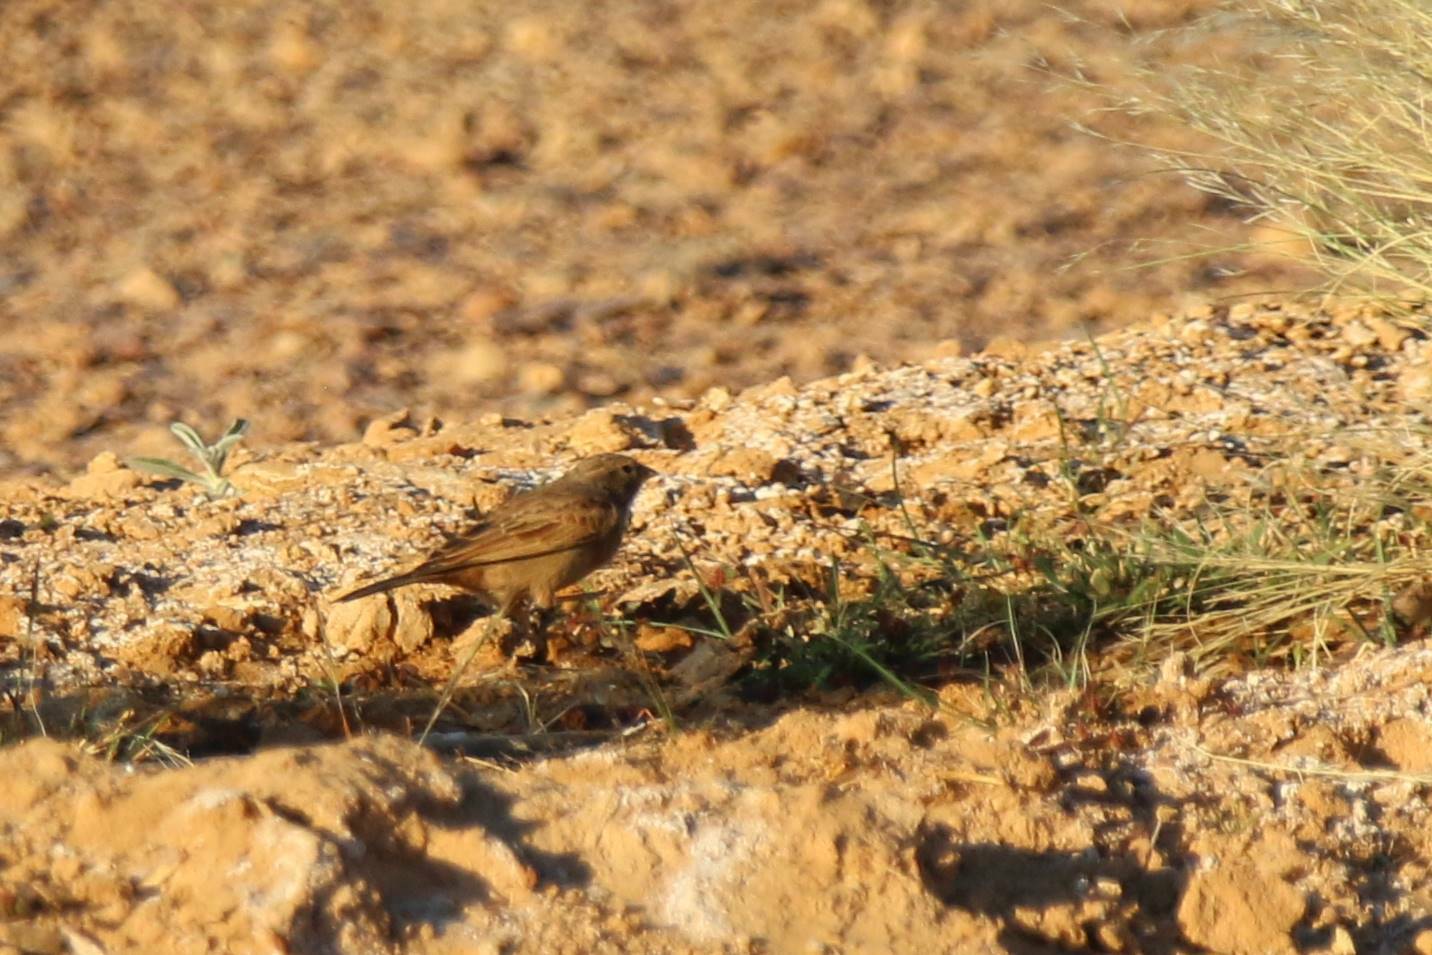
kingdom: Animalia
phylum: Chordata
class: Aves
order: Passeriformes
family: Emberizidae
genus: Emberiza
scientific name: Emberiza sahari
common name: House bunting
